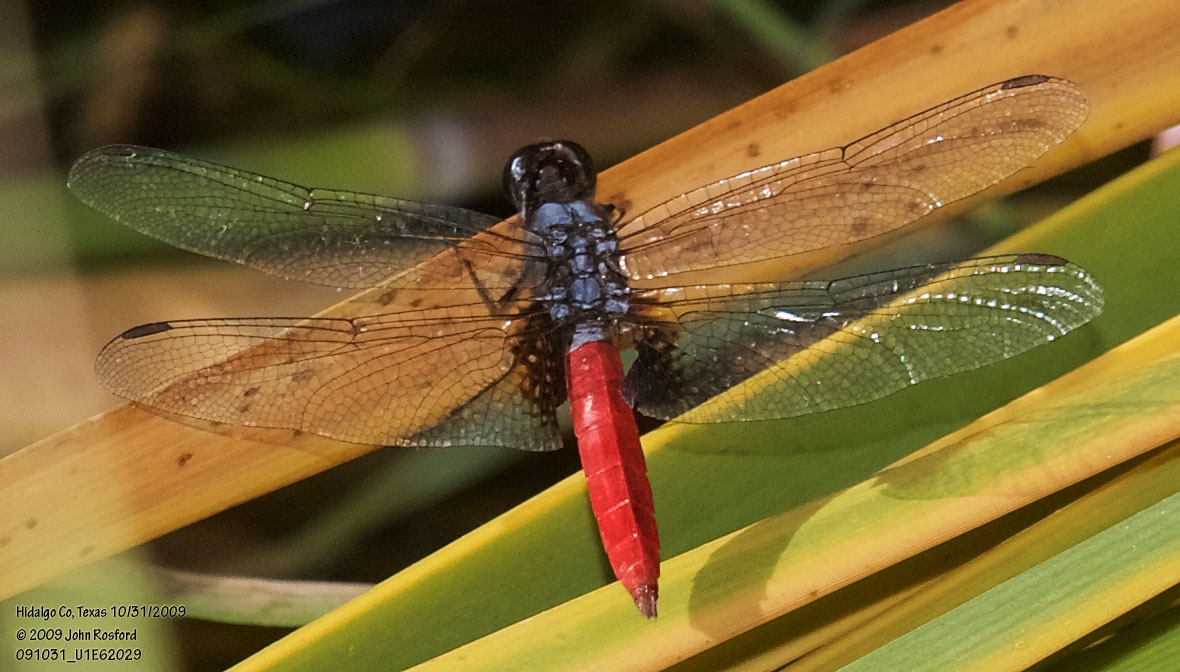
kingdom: Animalia
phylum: Arthropoda
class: Insecta
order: Odonata
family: Libellulidae
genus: Planiplax
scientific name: Planiplax sanguiniventris
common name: Mexican scarlet-tail
